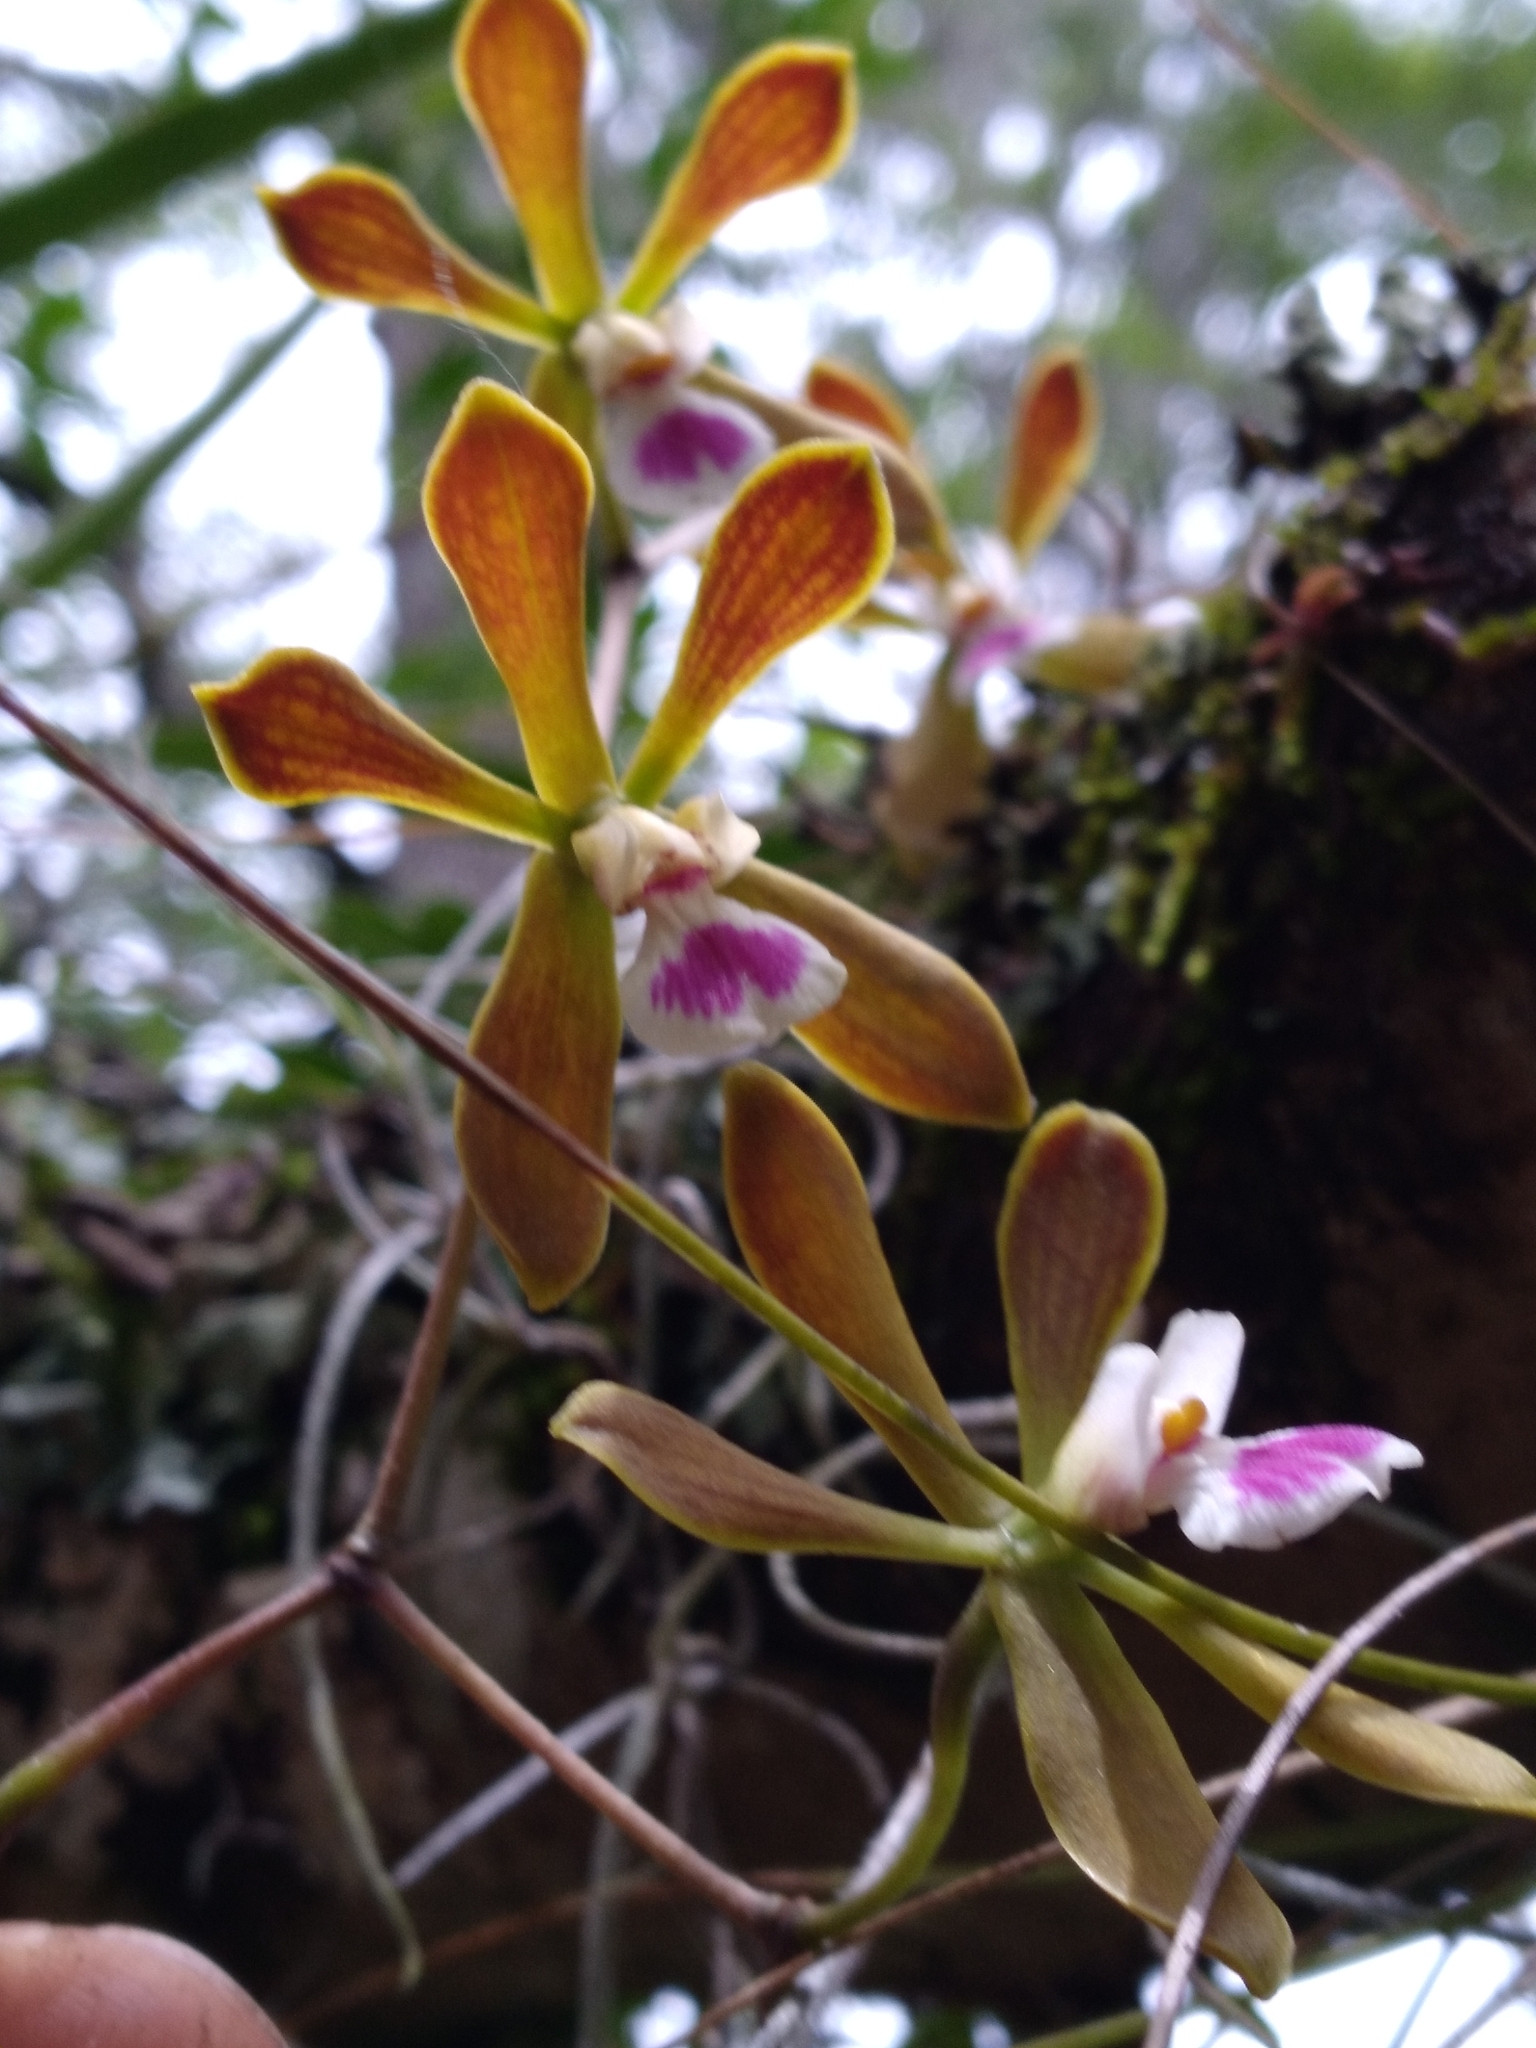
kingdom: Plantae
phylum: Tracheophyta
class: Liliopsida
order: Asparagales
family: Orchidaceae
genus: Encyclia
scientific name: Encyclia tampensis
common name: Florida butterfly orchid
